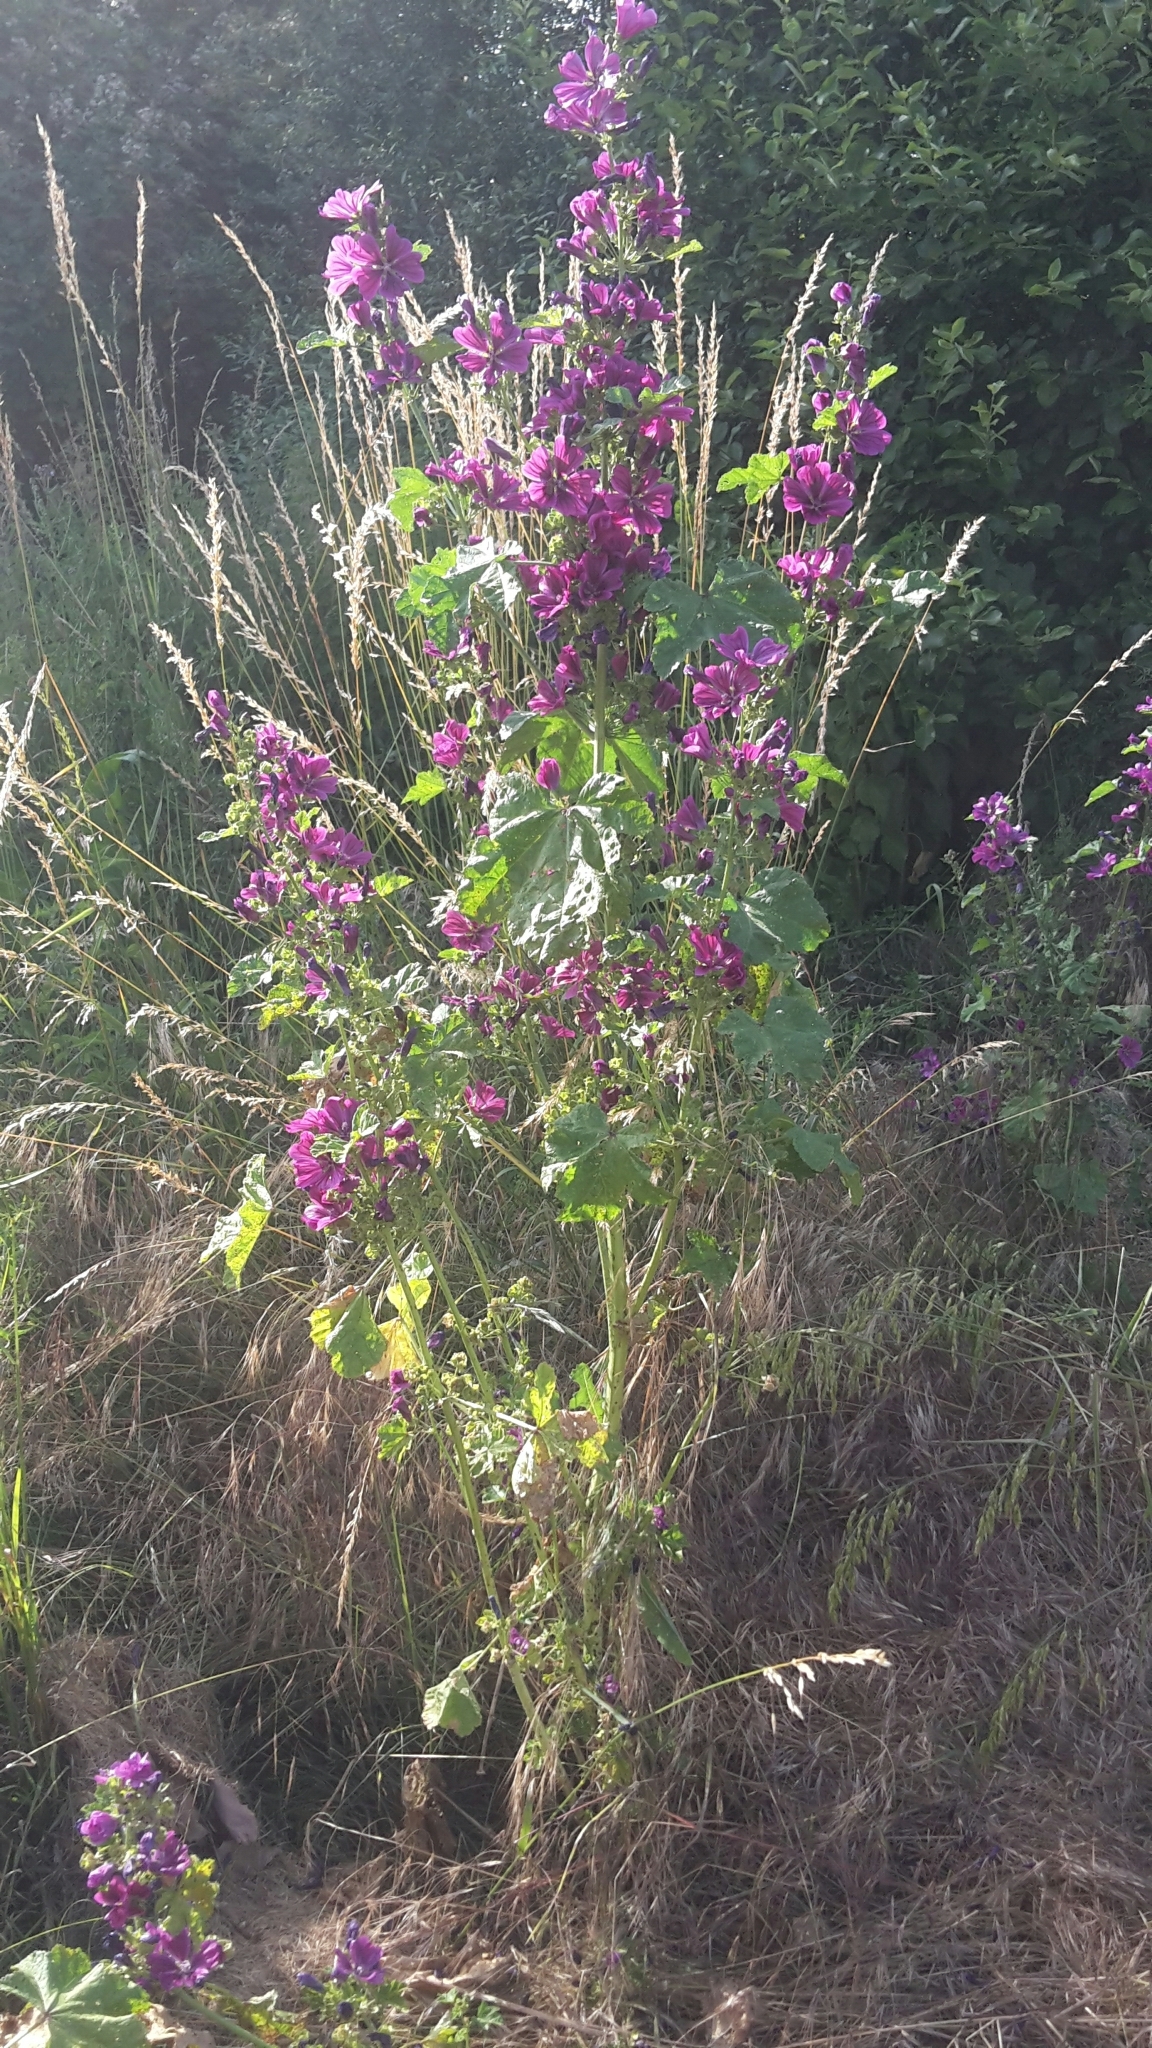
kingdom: Plantae
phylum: Tracheophyta
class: Magnoliopsida
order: Malvales
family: Malvaceae
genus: Malva
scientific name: Malva sylvestris
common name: Common mallow
